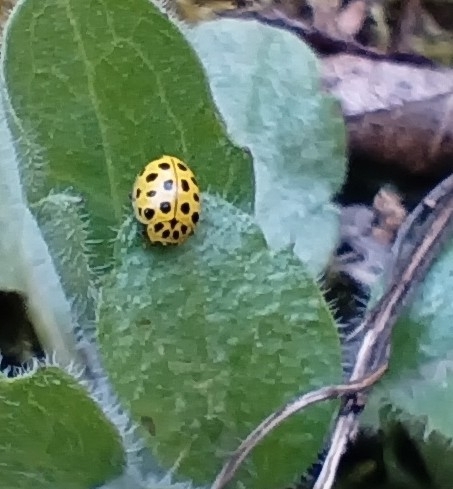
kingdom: Animalia
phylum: Arthropoda
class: Insecta
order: Coleoptera
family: Coccinellidae
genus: Psyllobora
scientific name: Psyllobora vigintiduopunctata
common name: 22-spot ladybird
